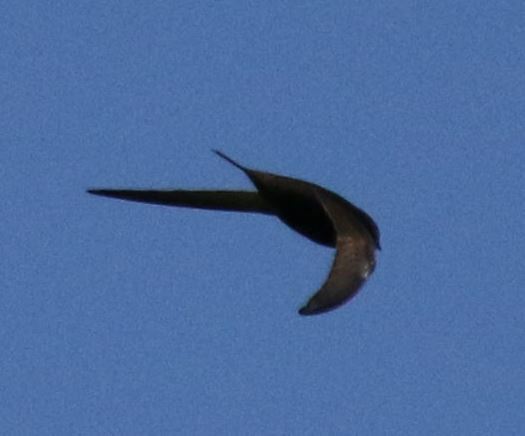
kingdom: Animalia
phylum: Chordata
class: Aves
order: Apodiformes
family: Apodidae
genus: Apus
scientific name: Apus apus
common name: Common swift
